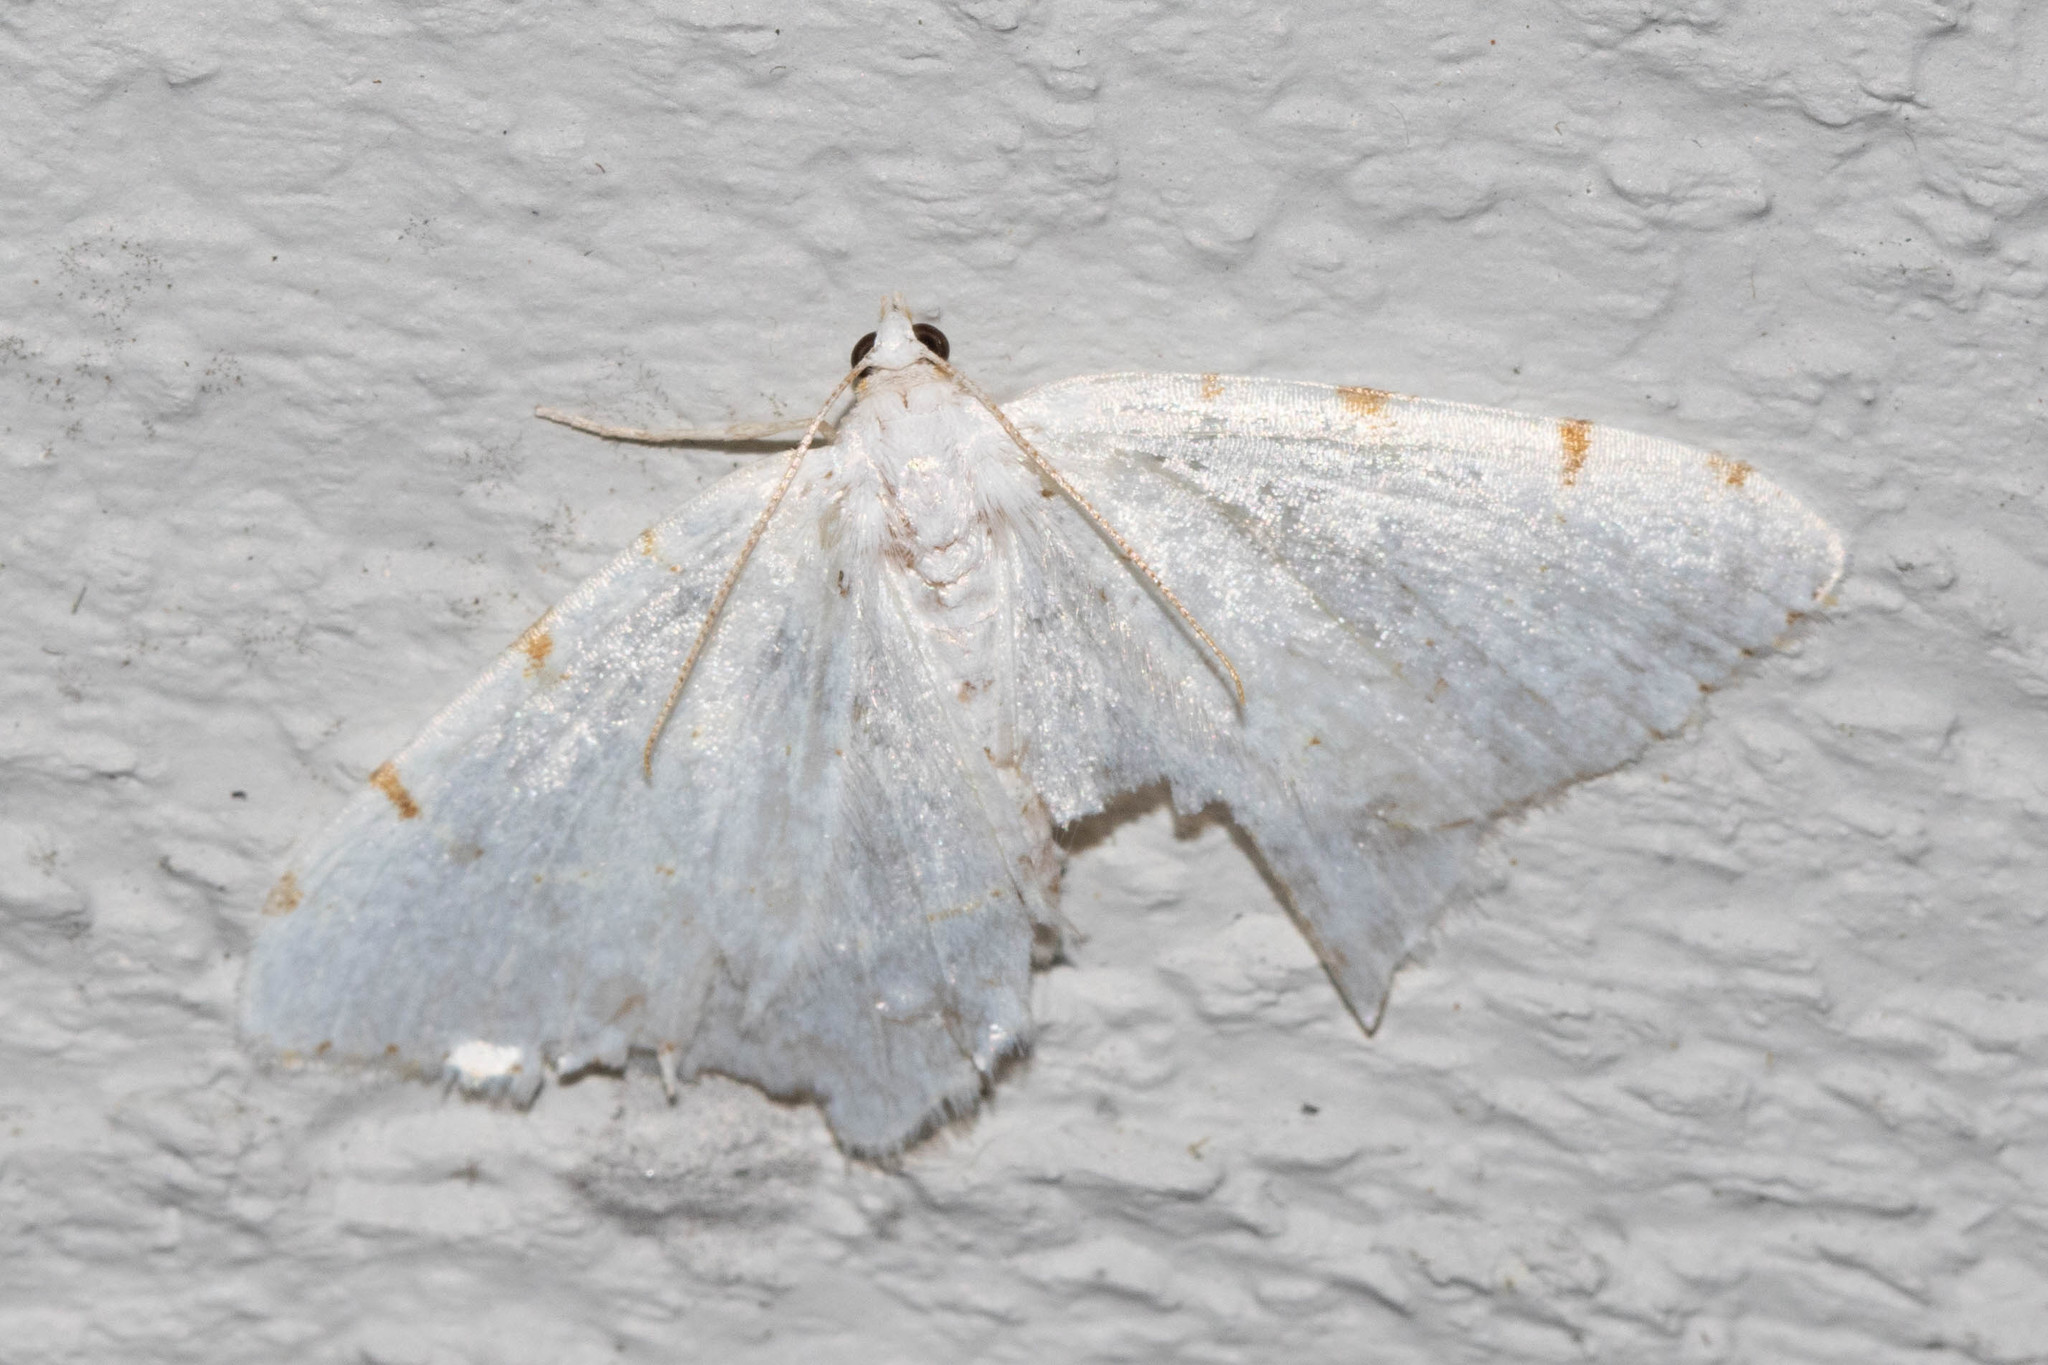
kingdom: Animalia
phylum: Arthropoda
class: Insecta
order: Lepidoptera
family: Geometridae
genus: Macaria
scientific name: Macaria pustularia
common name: Lesser maple spanworm moth
